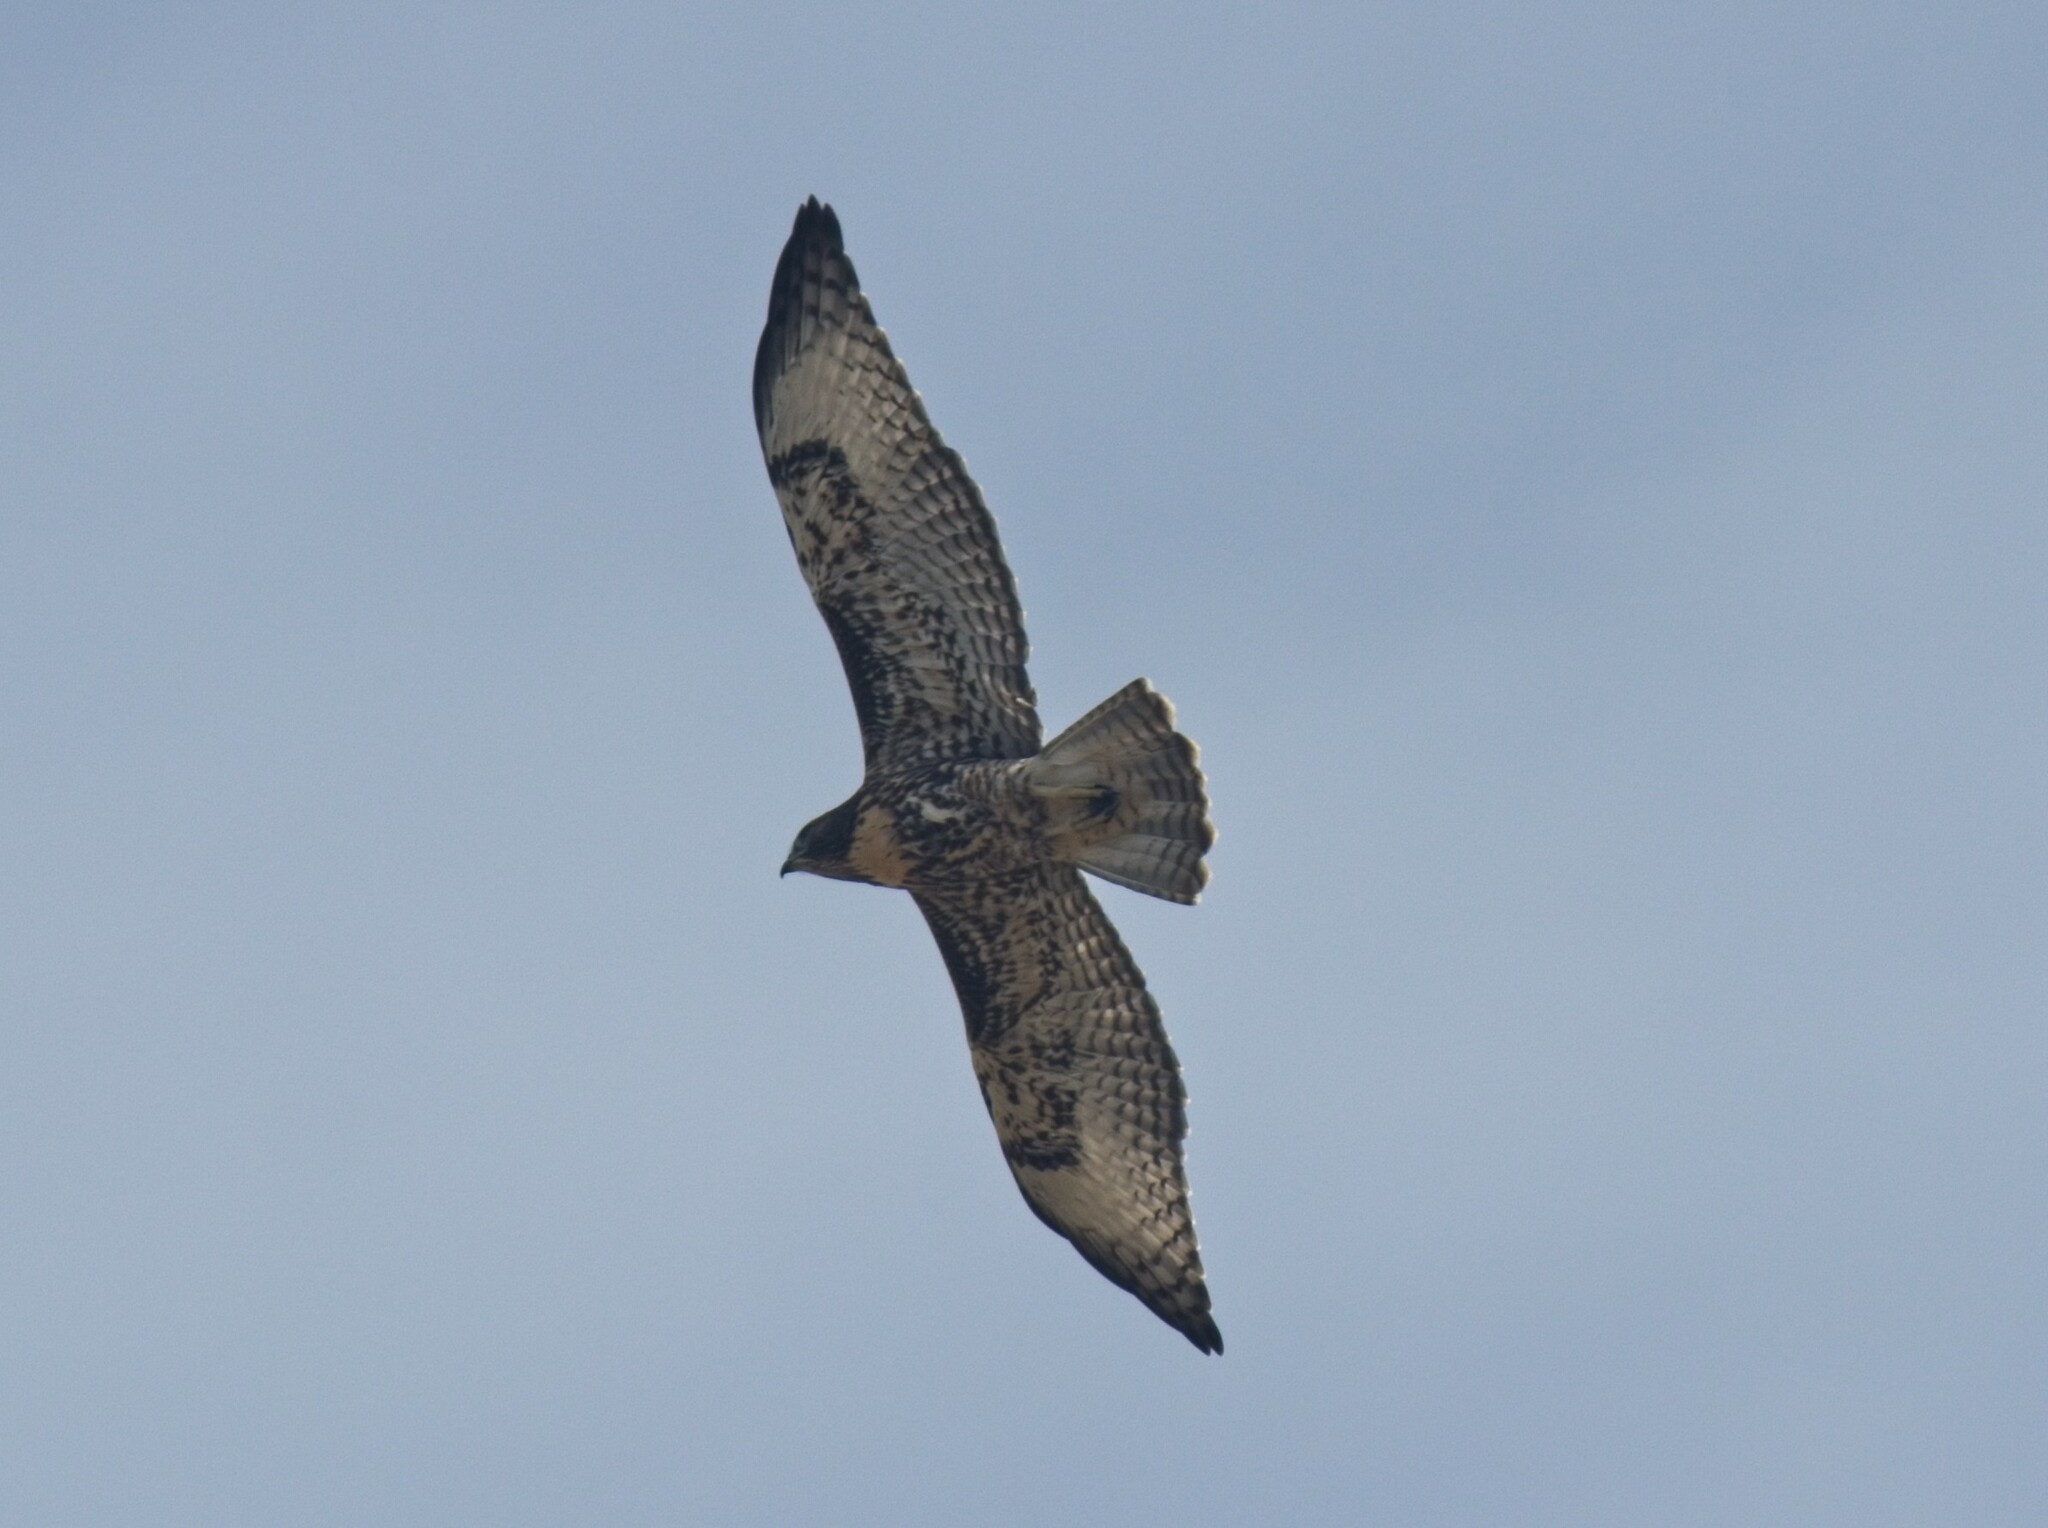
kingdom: Animalia
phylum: Chordata
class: Aves
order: Accipitriformes
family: Accipitridae
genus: Buteo
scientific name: Buteo jamaicensis
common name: Red-tailed hawk
